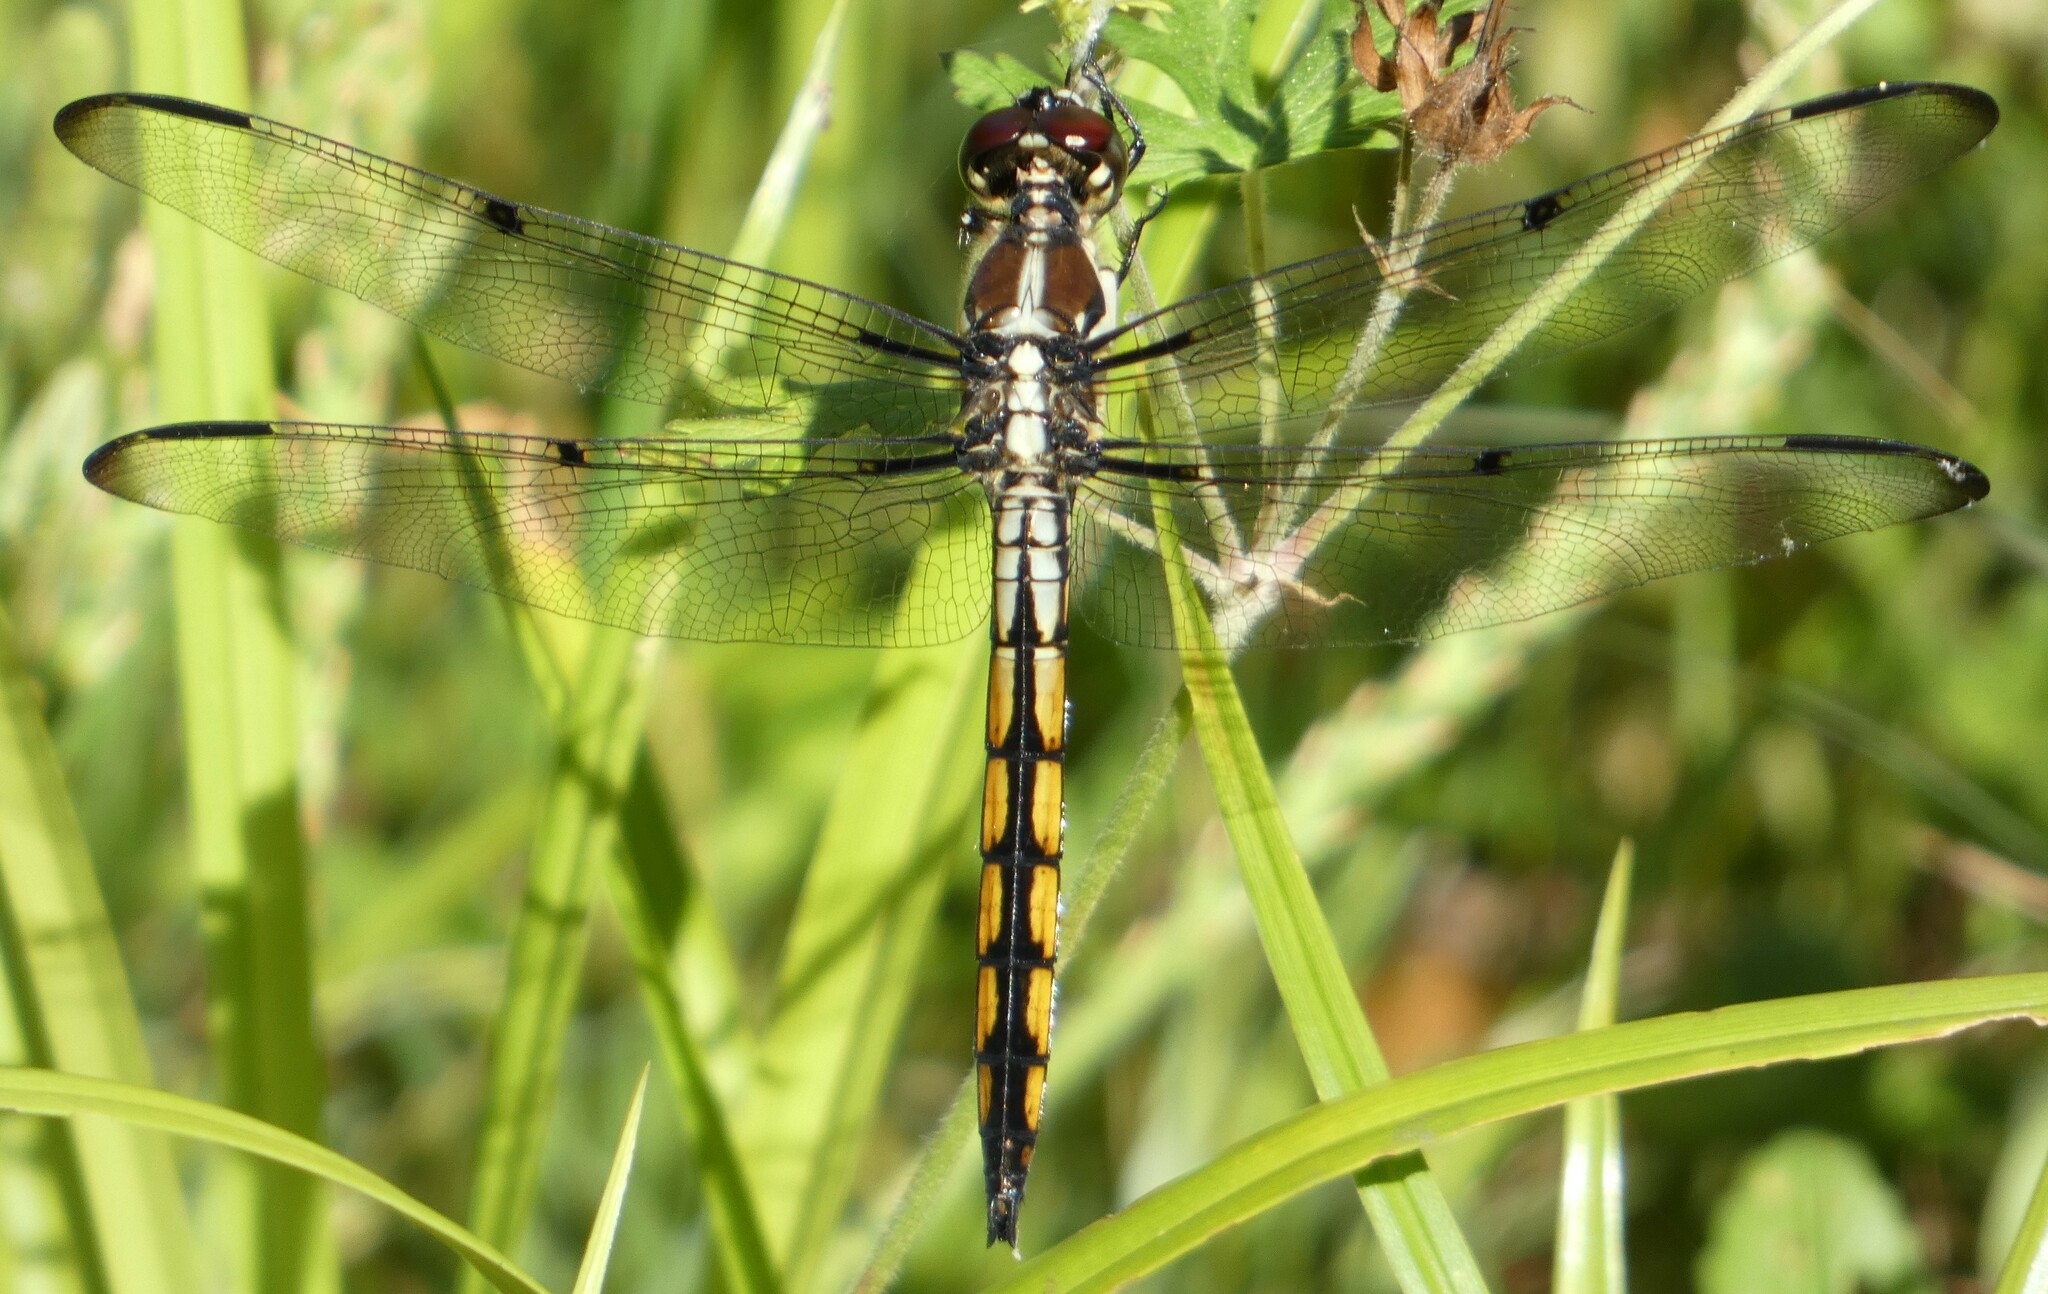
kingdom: Animalia
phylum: Arthropoda
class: Insecta
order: Odonata
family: Libellulidae
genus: Libellula
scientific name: Libellula vibrans
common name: Great blue skimmer
